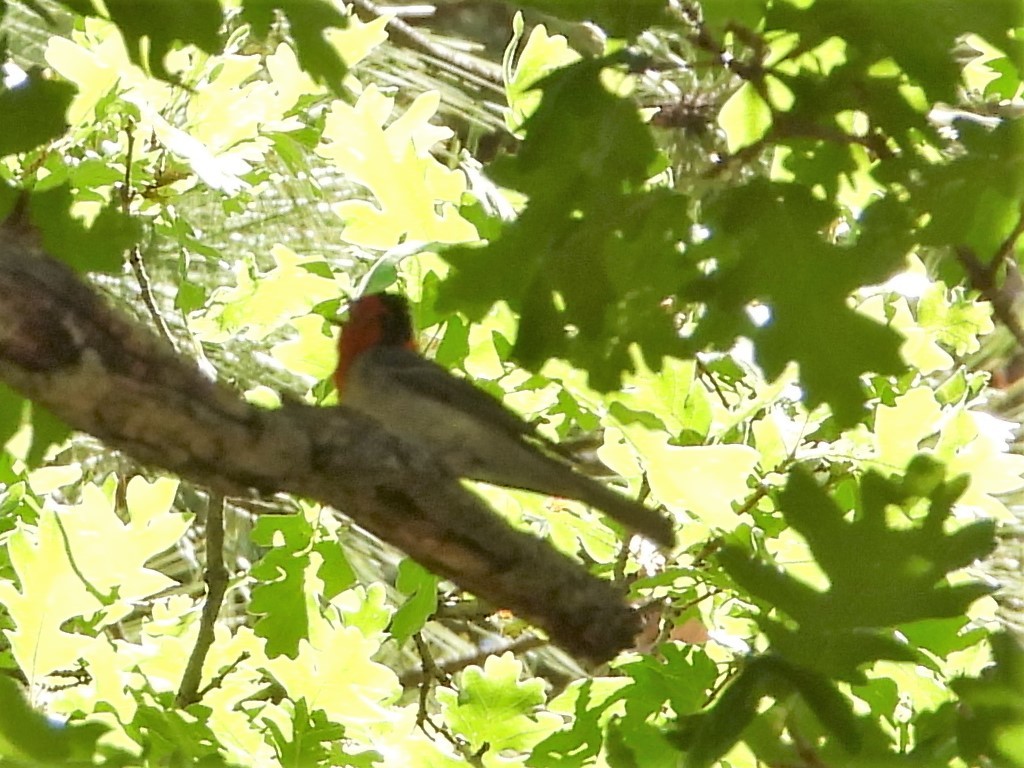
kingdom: Animalia
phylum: Chordata
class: Aves
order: Passeriformes
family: Parulidae
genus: Cardellina
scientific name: Cardellina rubrifrons
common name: Red-faced warbler
